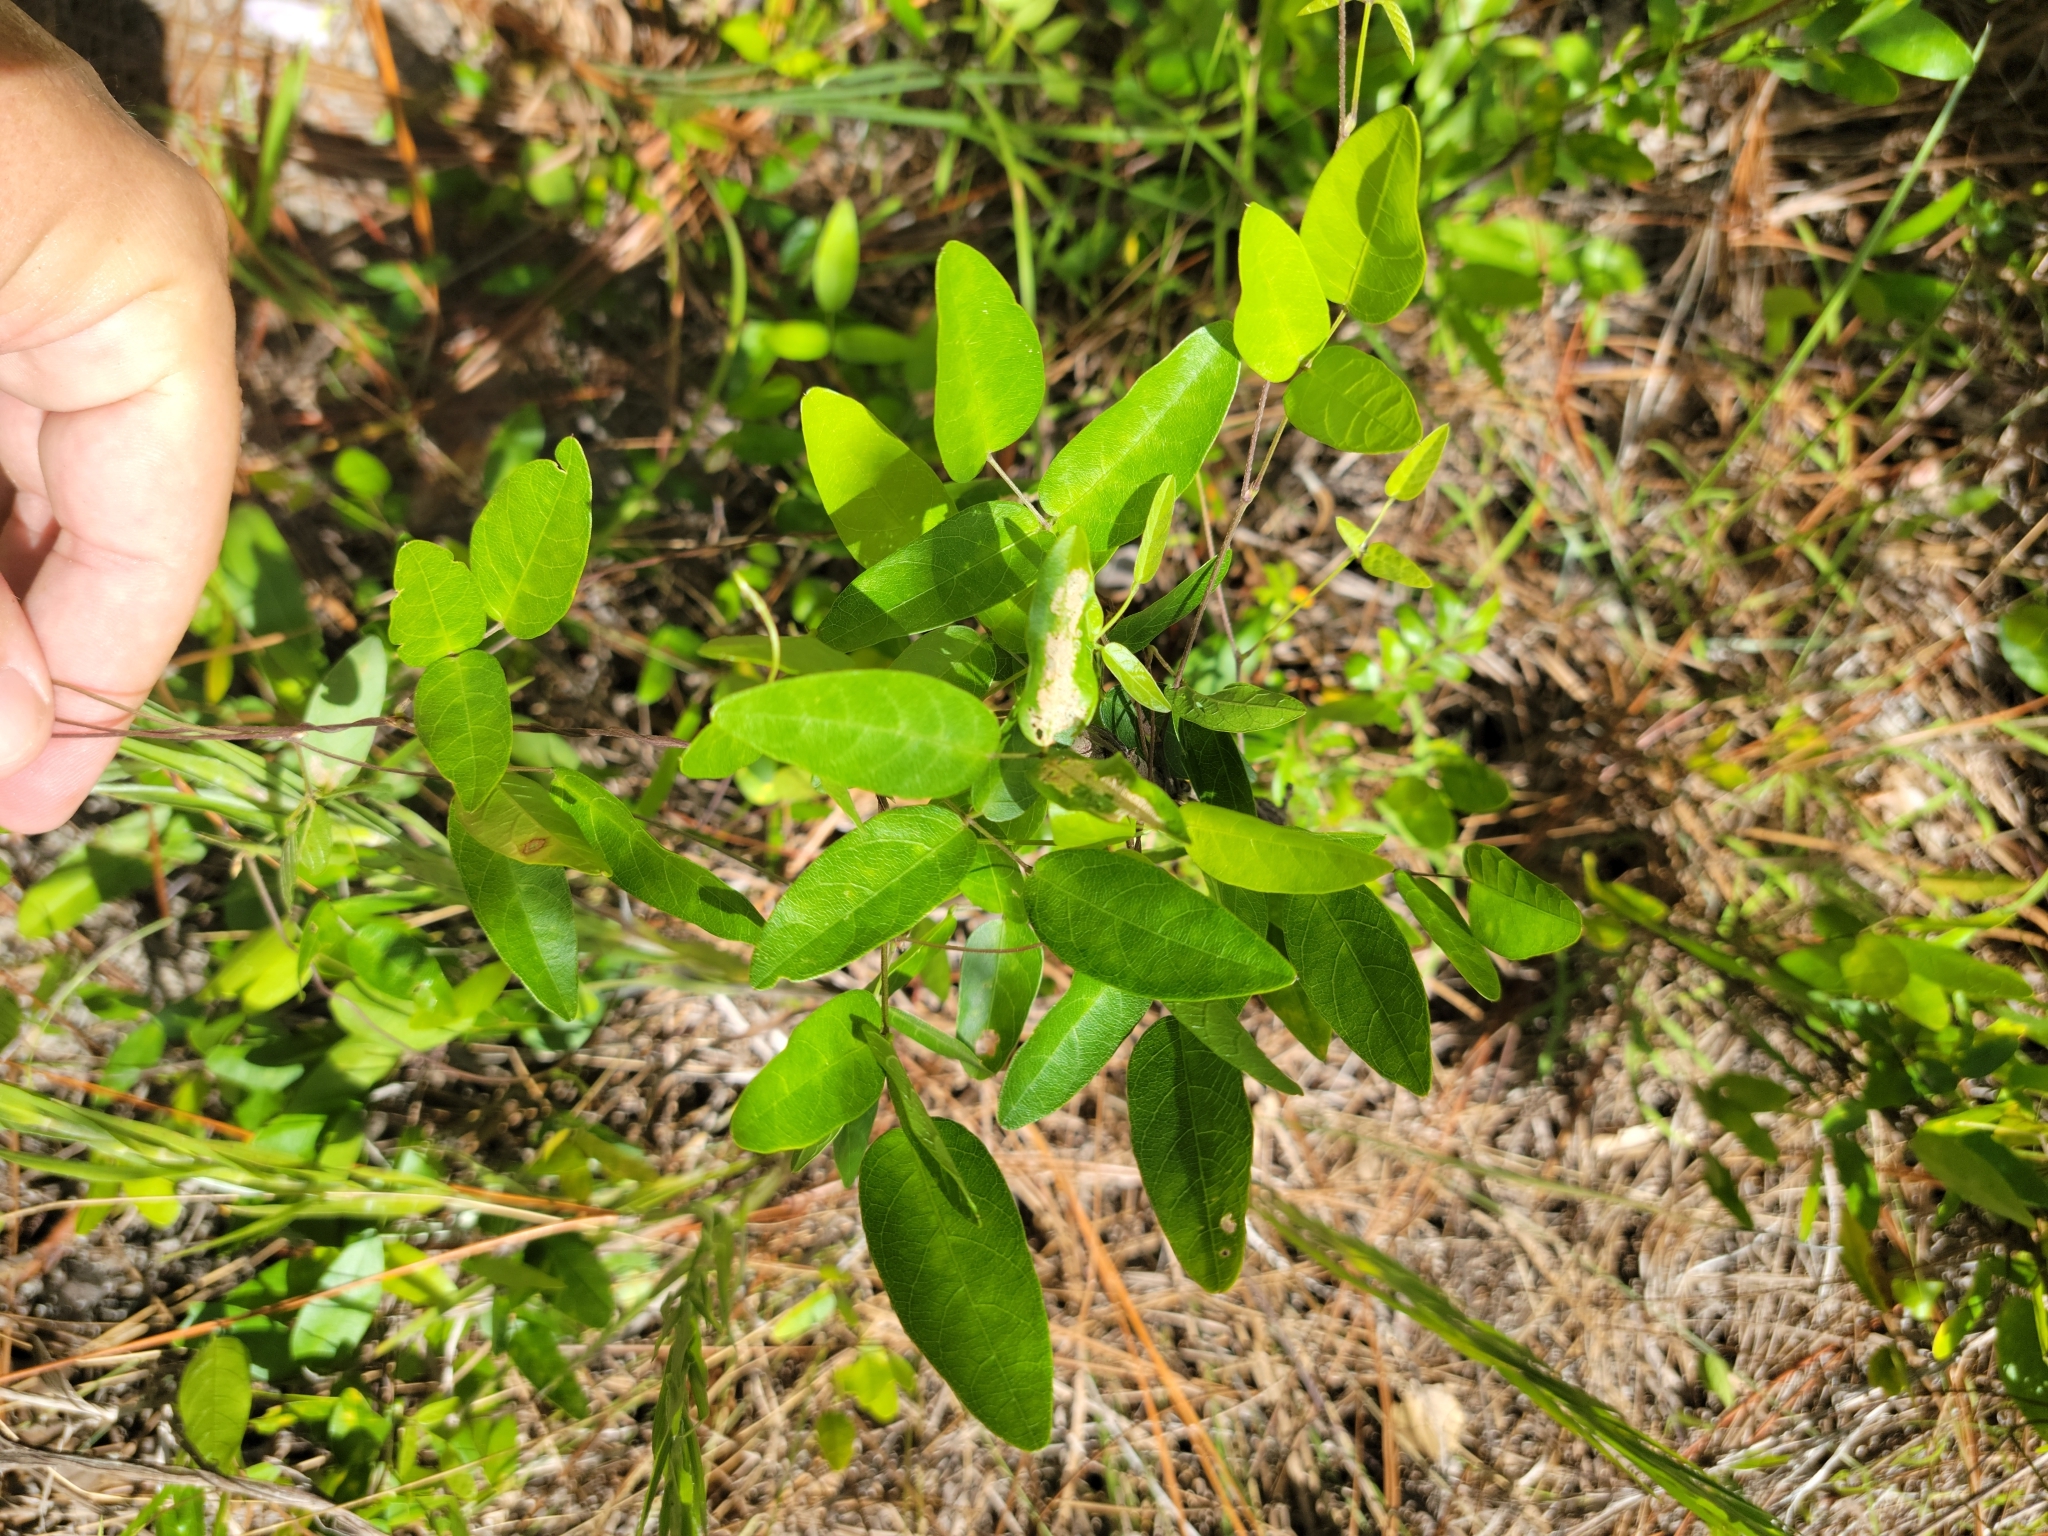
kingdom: Plantae
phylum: Tracheophyta
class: Magnoliopsida
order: Fabales
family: Fabaceae
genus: Centrosema
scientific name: Centrosema arenicola
